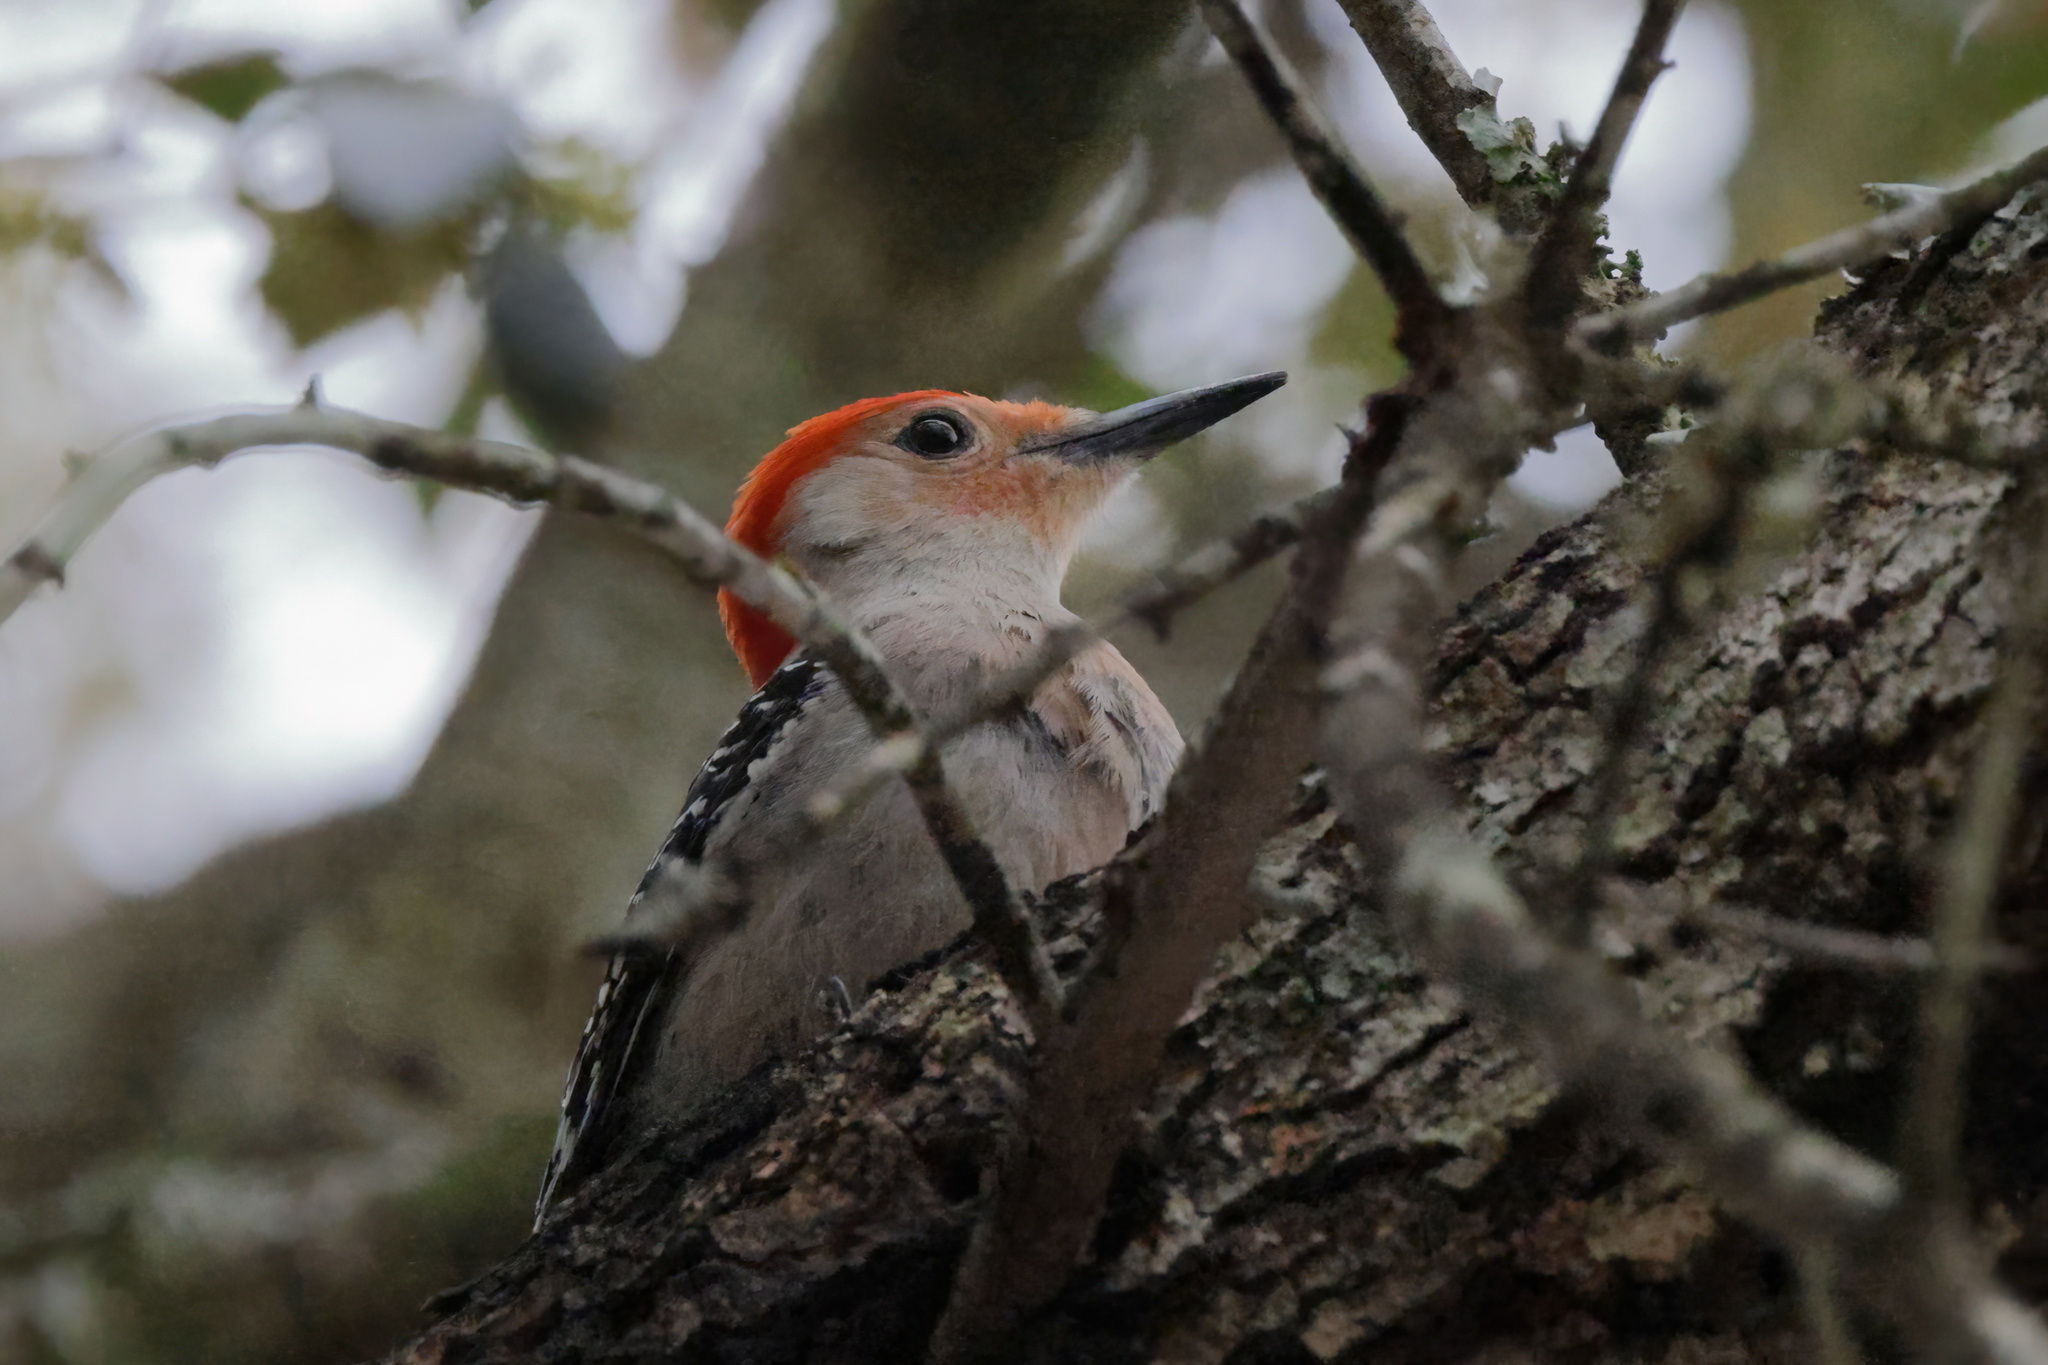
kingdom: Animalia
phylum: Chordata
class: Aves
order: Piciformes
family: Picidae
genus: Melanerpes
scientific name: Melanerpes carolinus
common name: Red-bellied woodpecker
